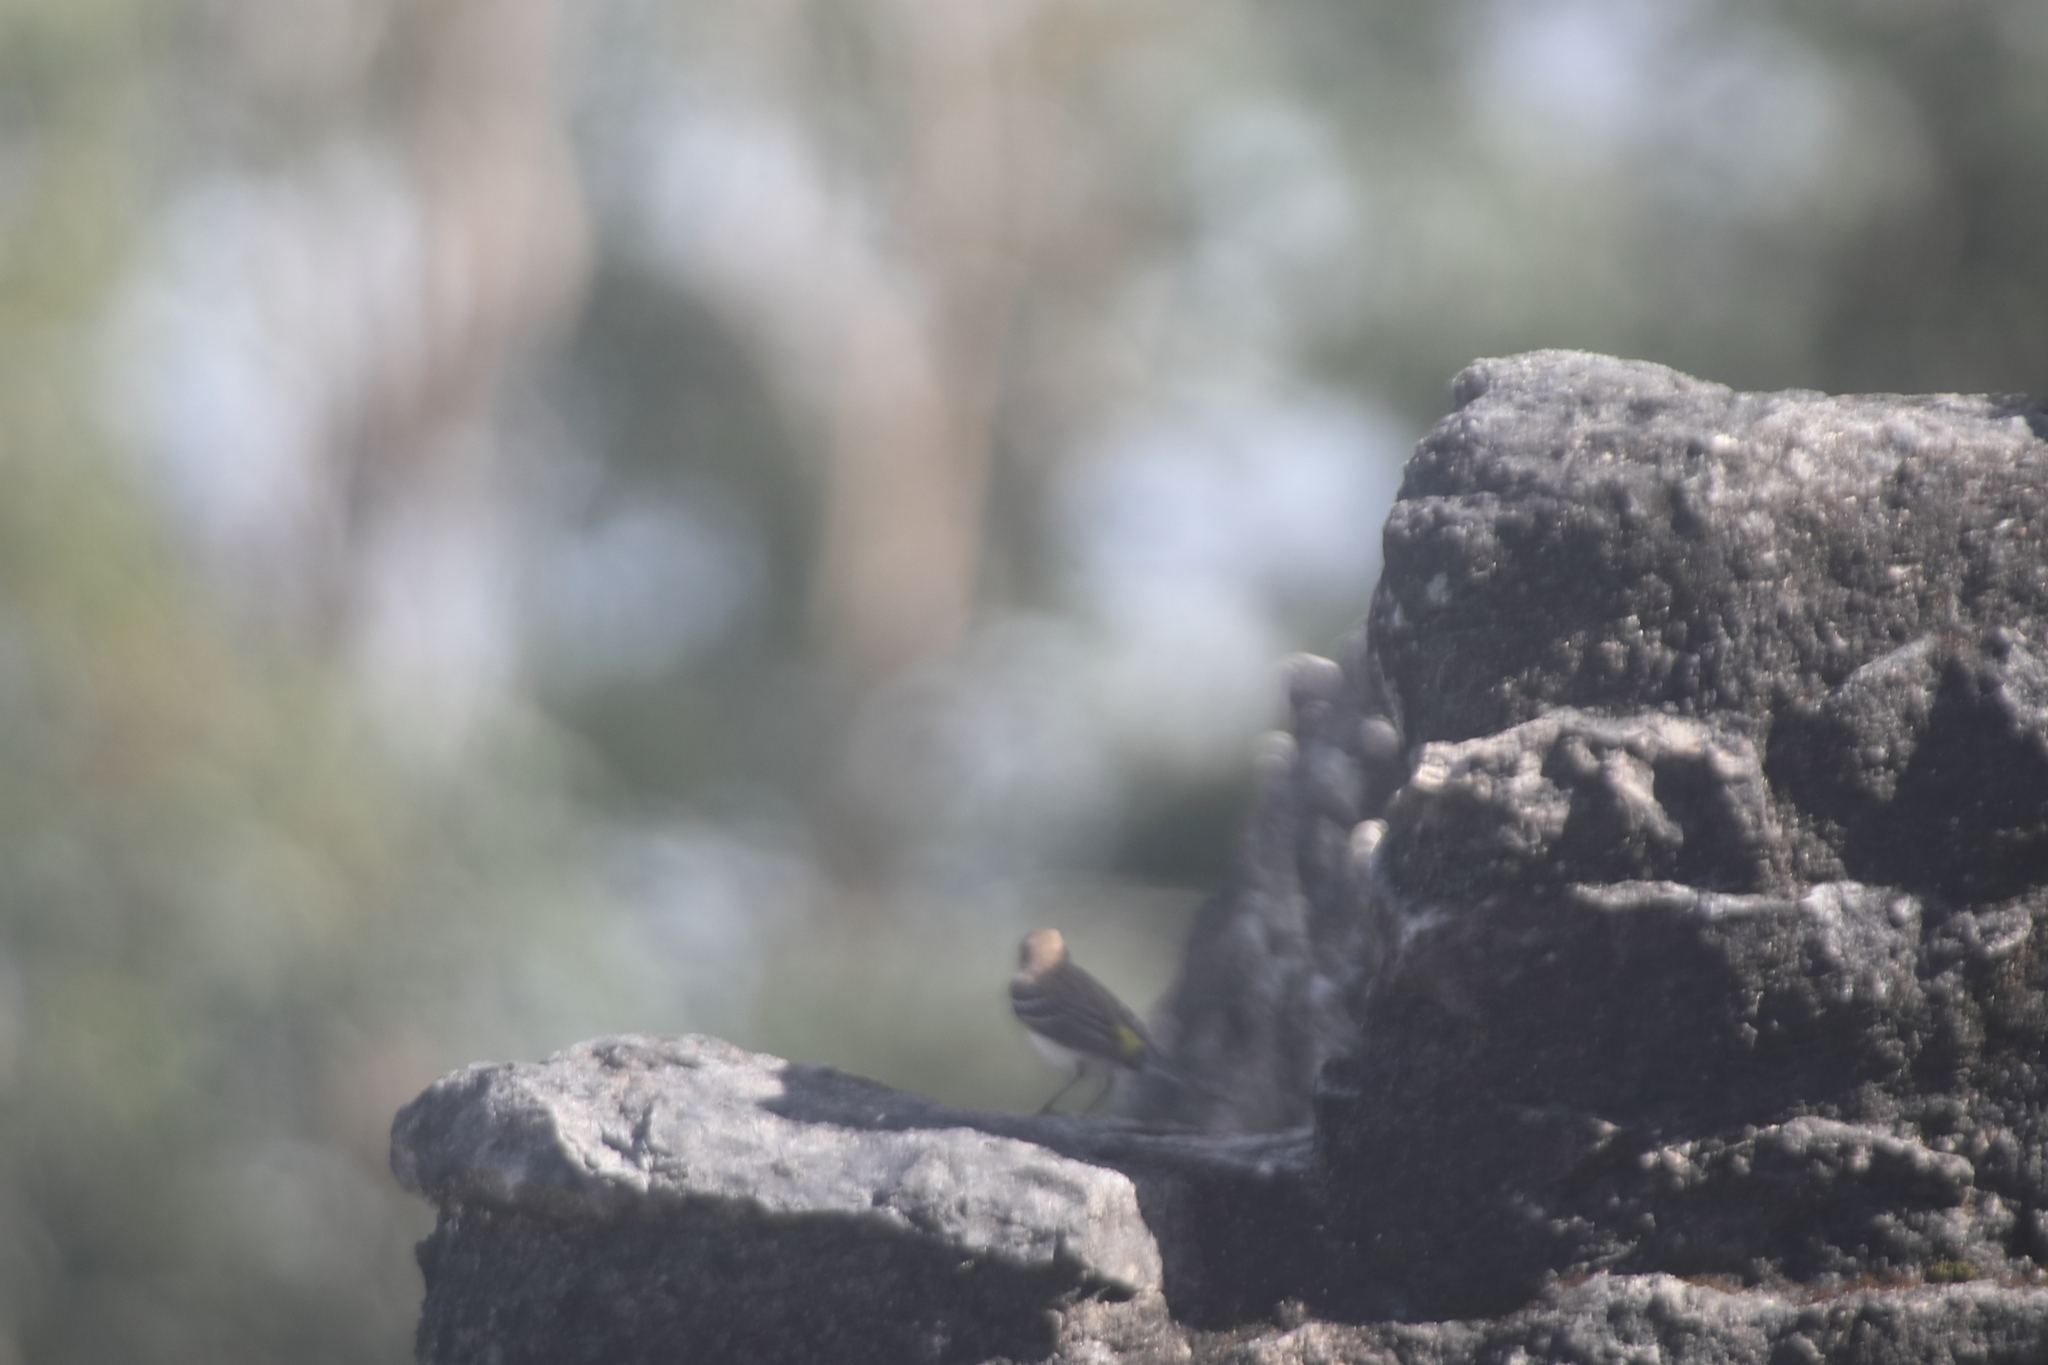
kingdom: Animalia
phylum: Chordata
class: Aves
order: Passeriformes
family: Parulidae
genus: Setophaga
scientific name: Setophaga coronata
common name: Myrtle warbler
